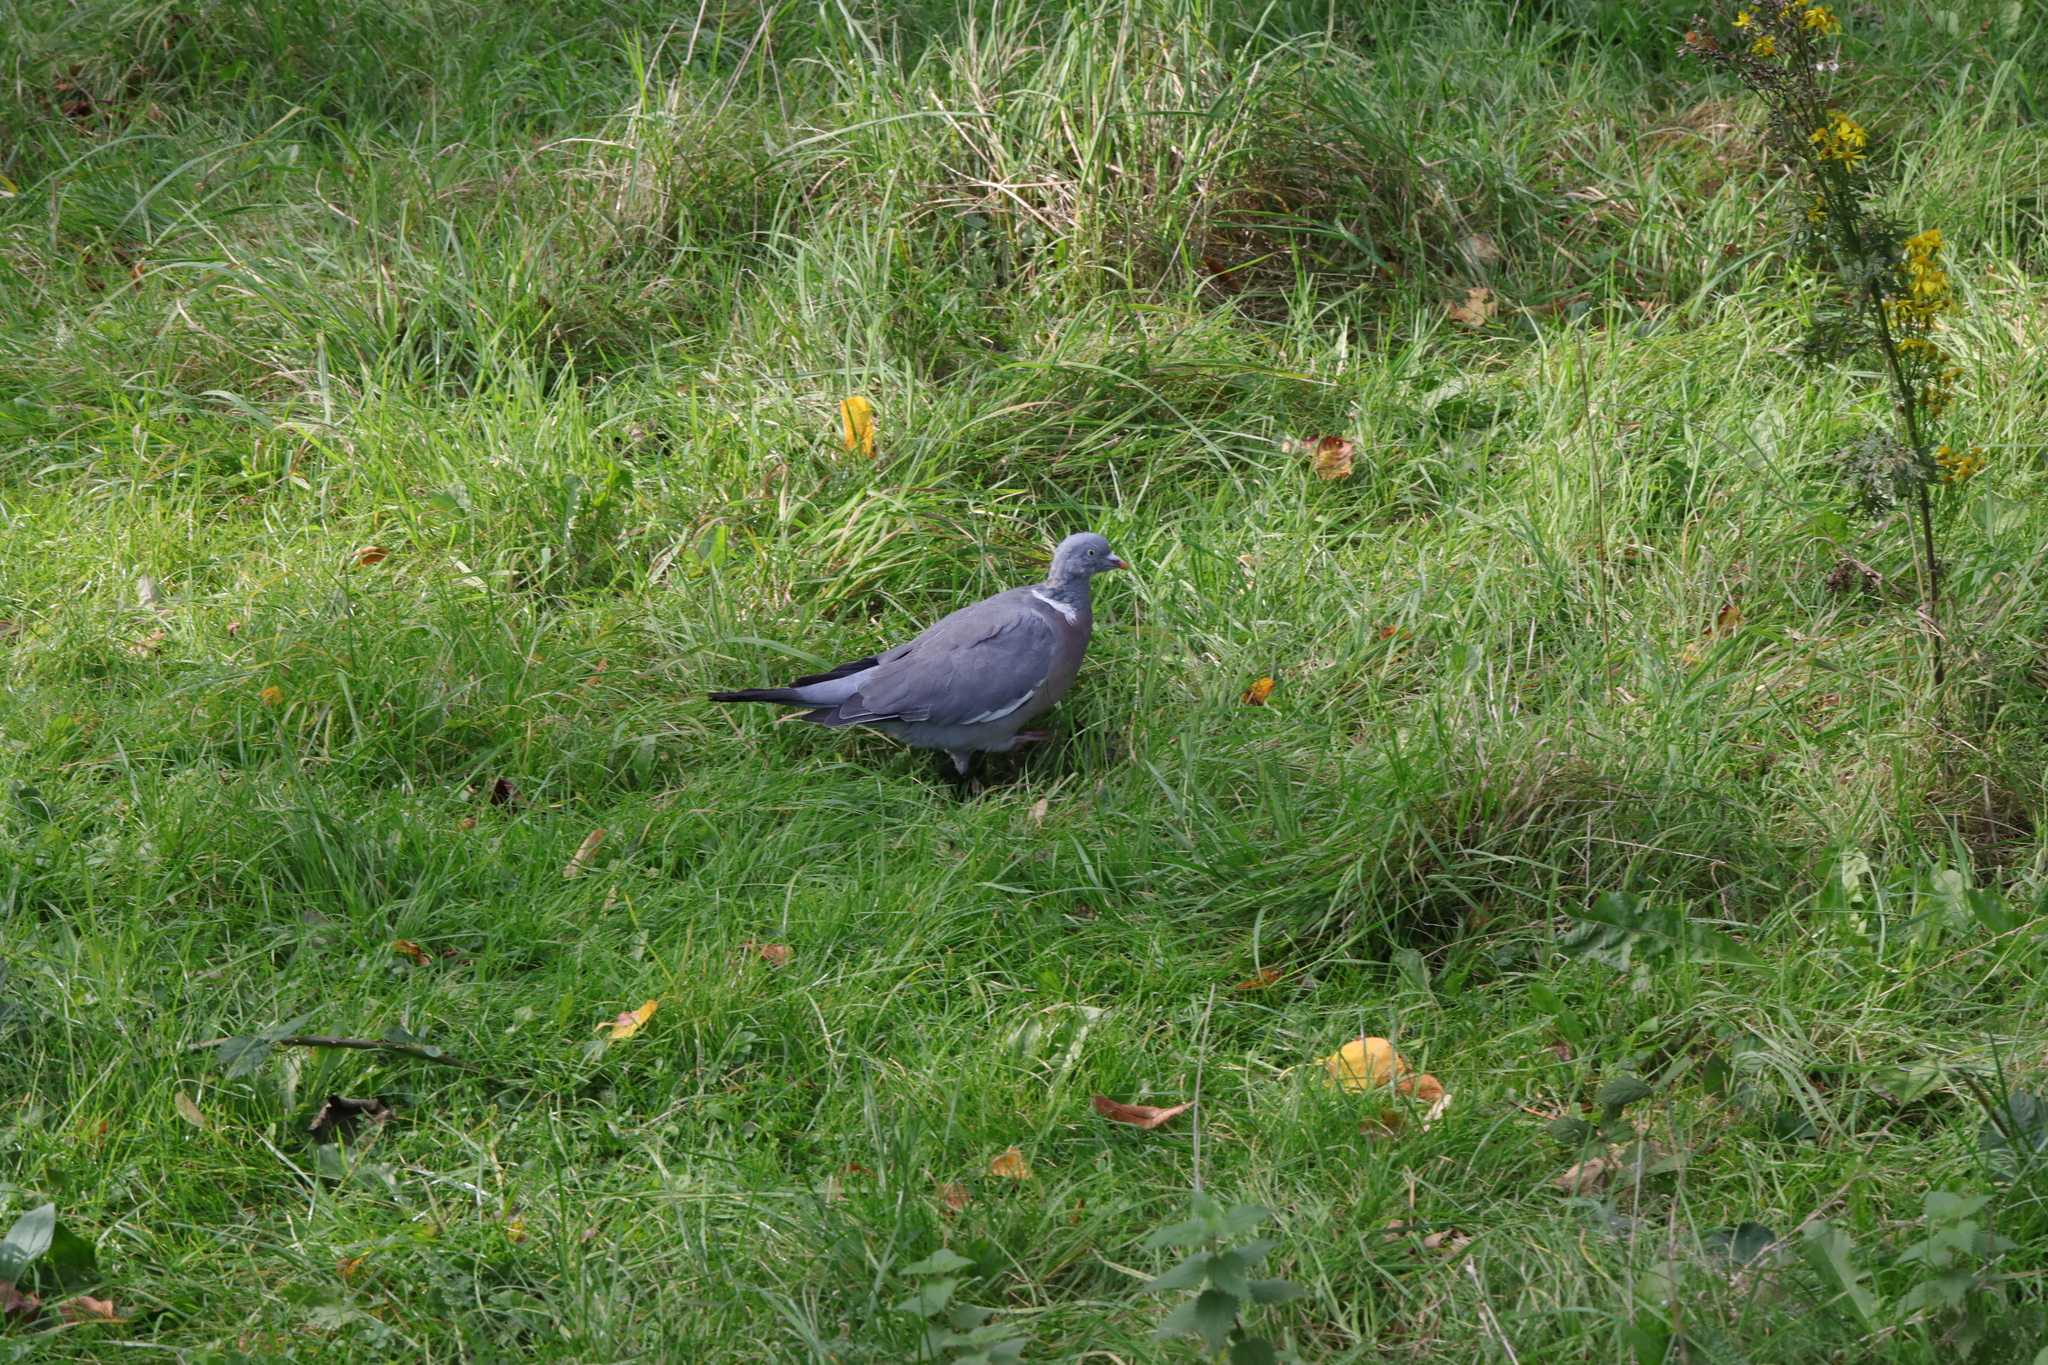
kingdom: Animalia
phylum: Chordata
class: Aves
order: Columbiformes
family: Columbidae
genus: Columba
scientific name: Columba palumbus
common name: Common wood pigeon
